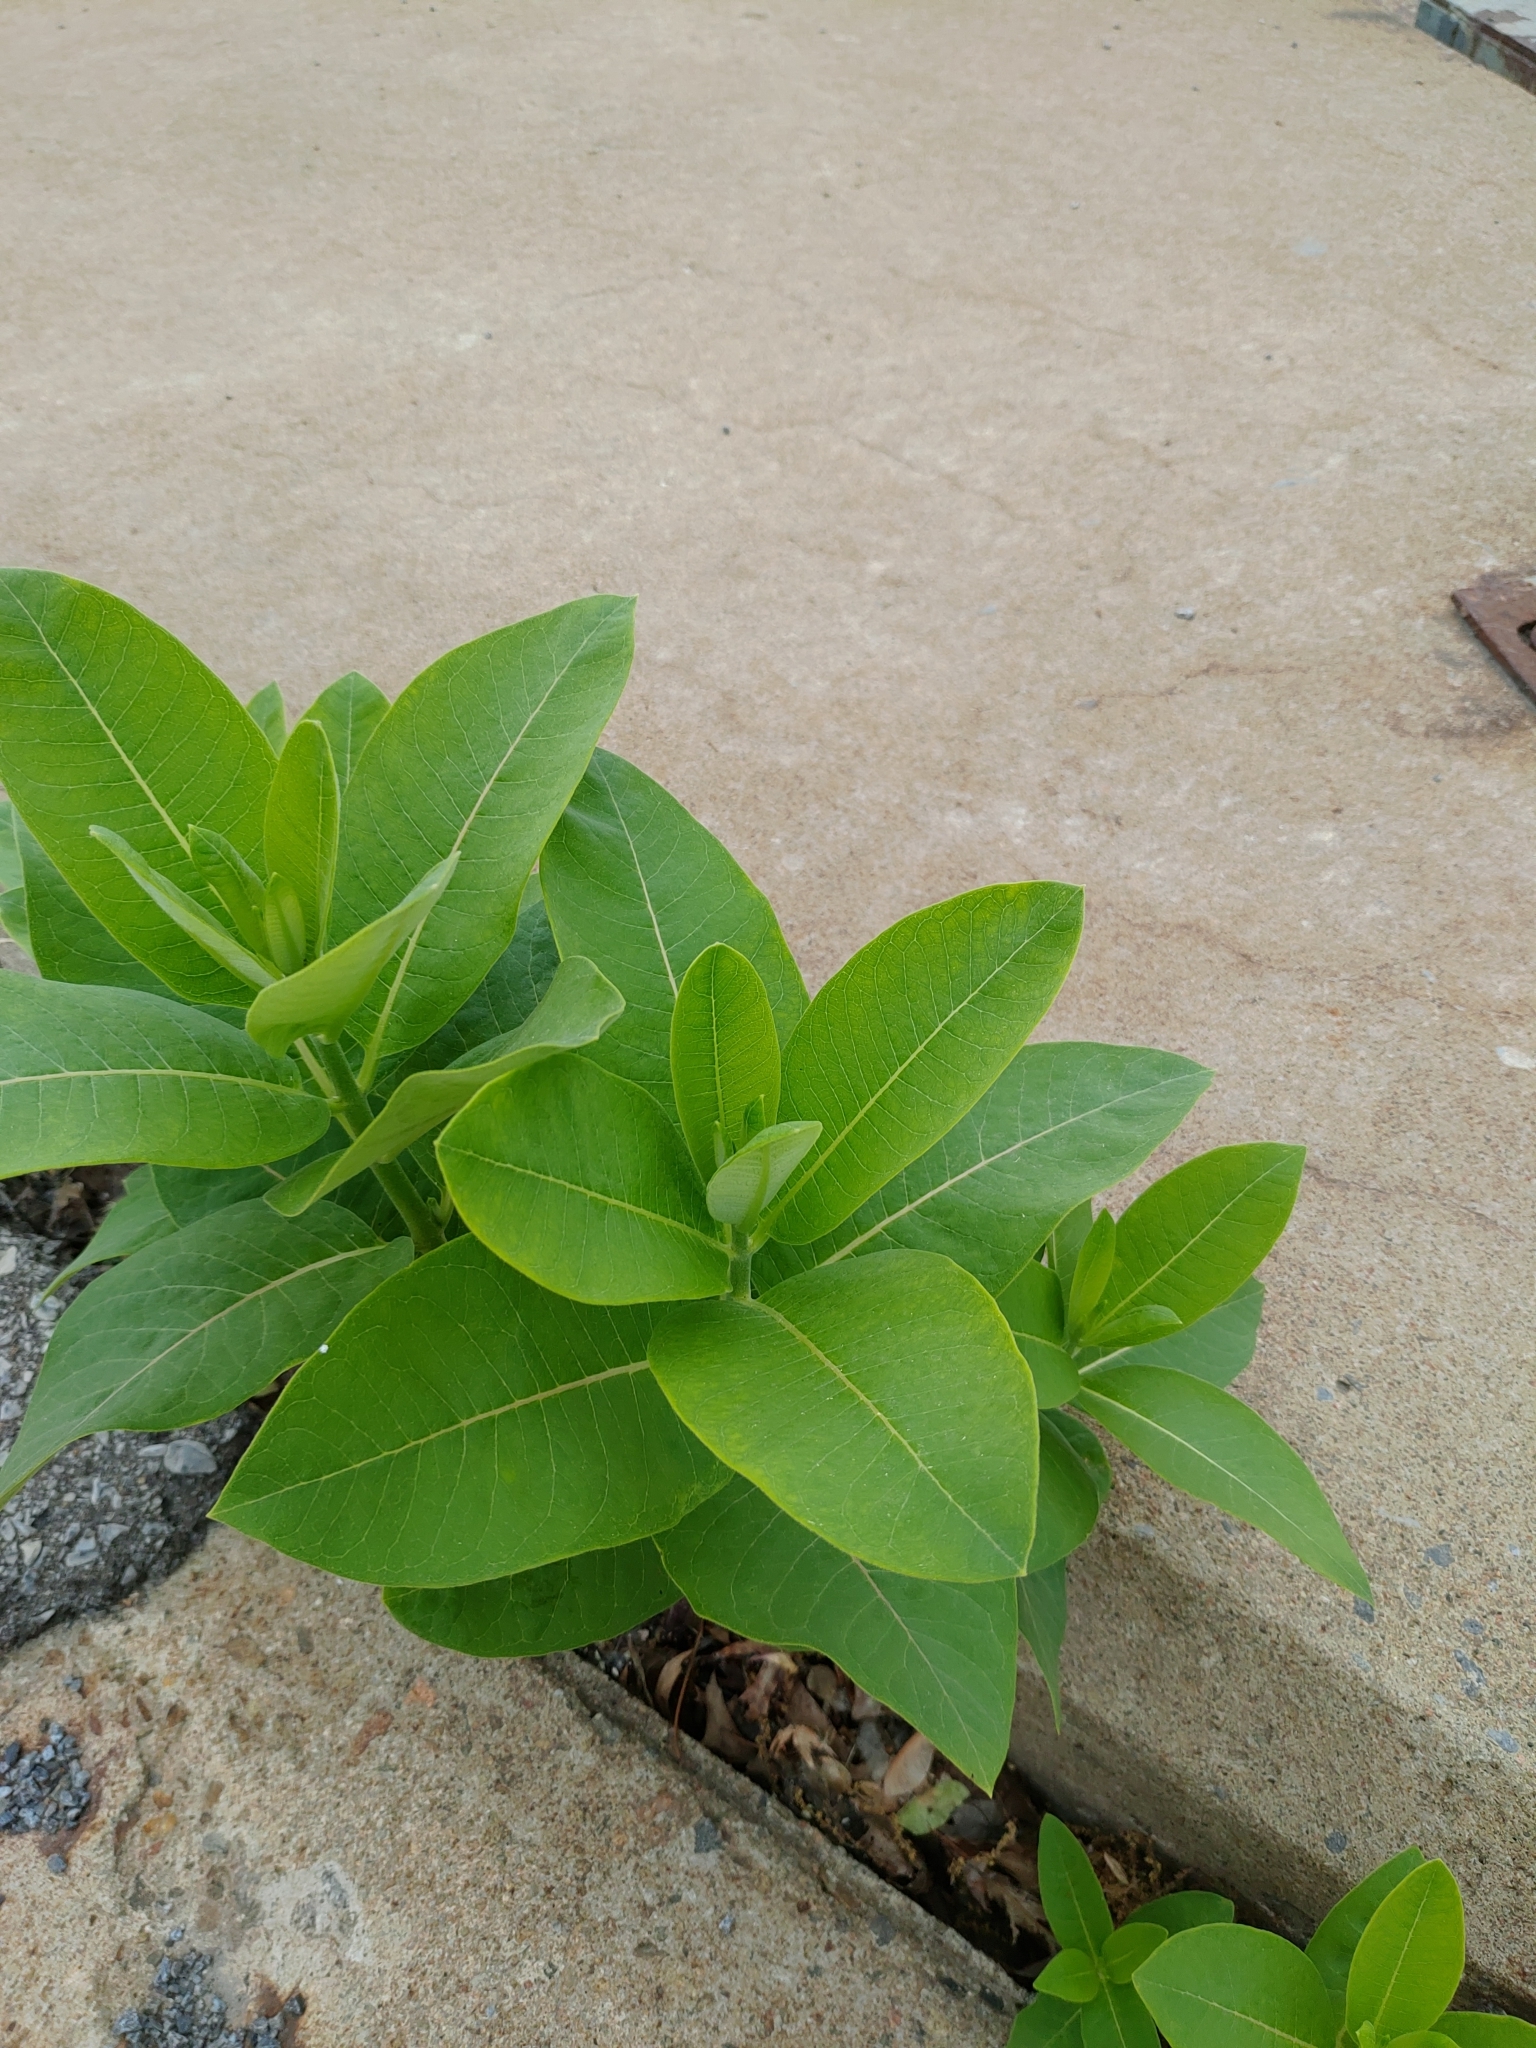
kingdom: Plantae
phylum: Tracheophyta
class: Magnoliopsida
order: Gentianales
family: Apocynaceae
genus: Asclepias
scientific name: Asclepias syriaca
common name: Common milkweed
